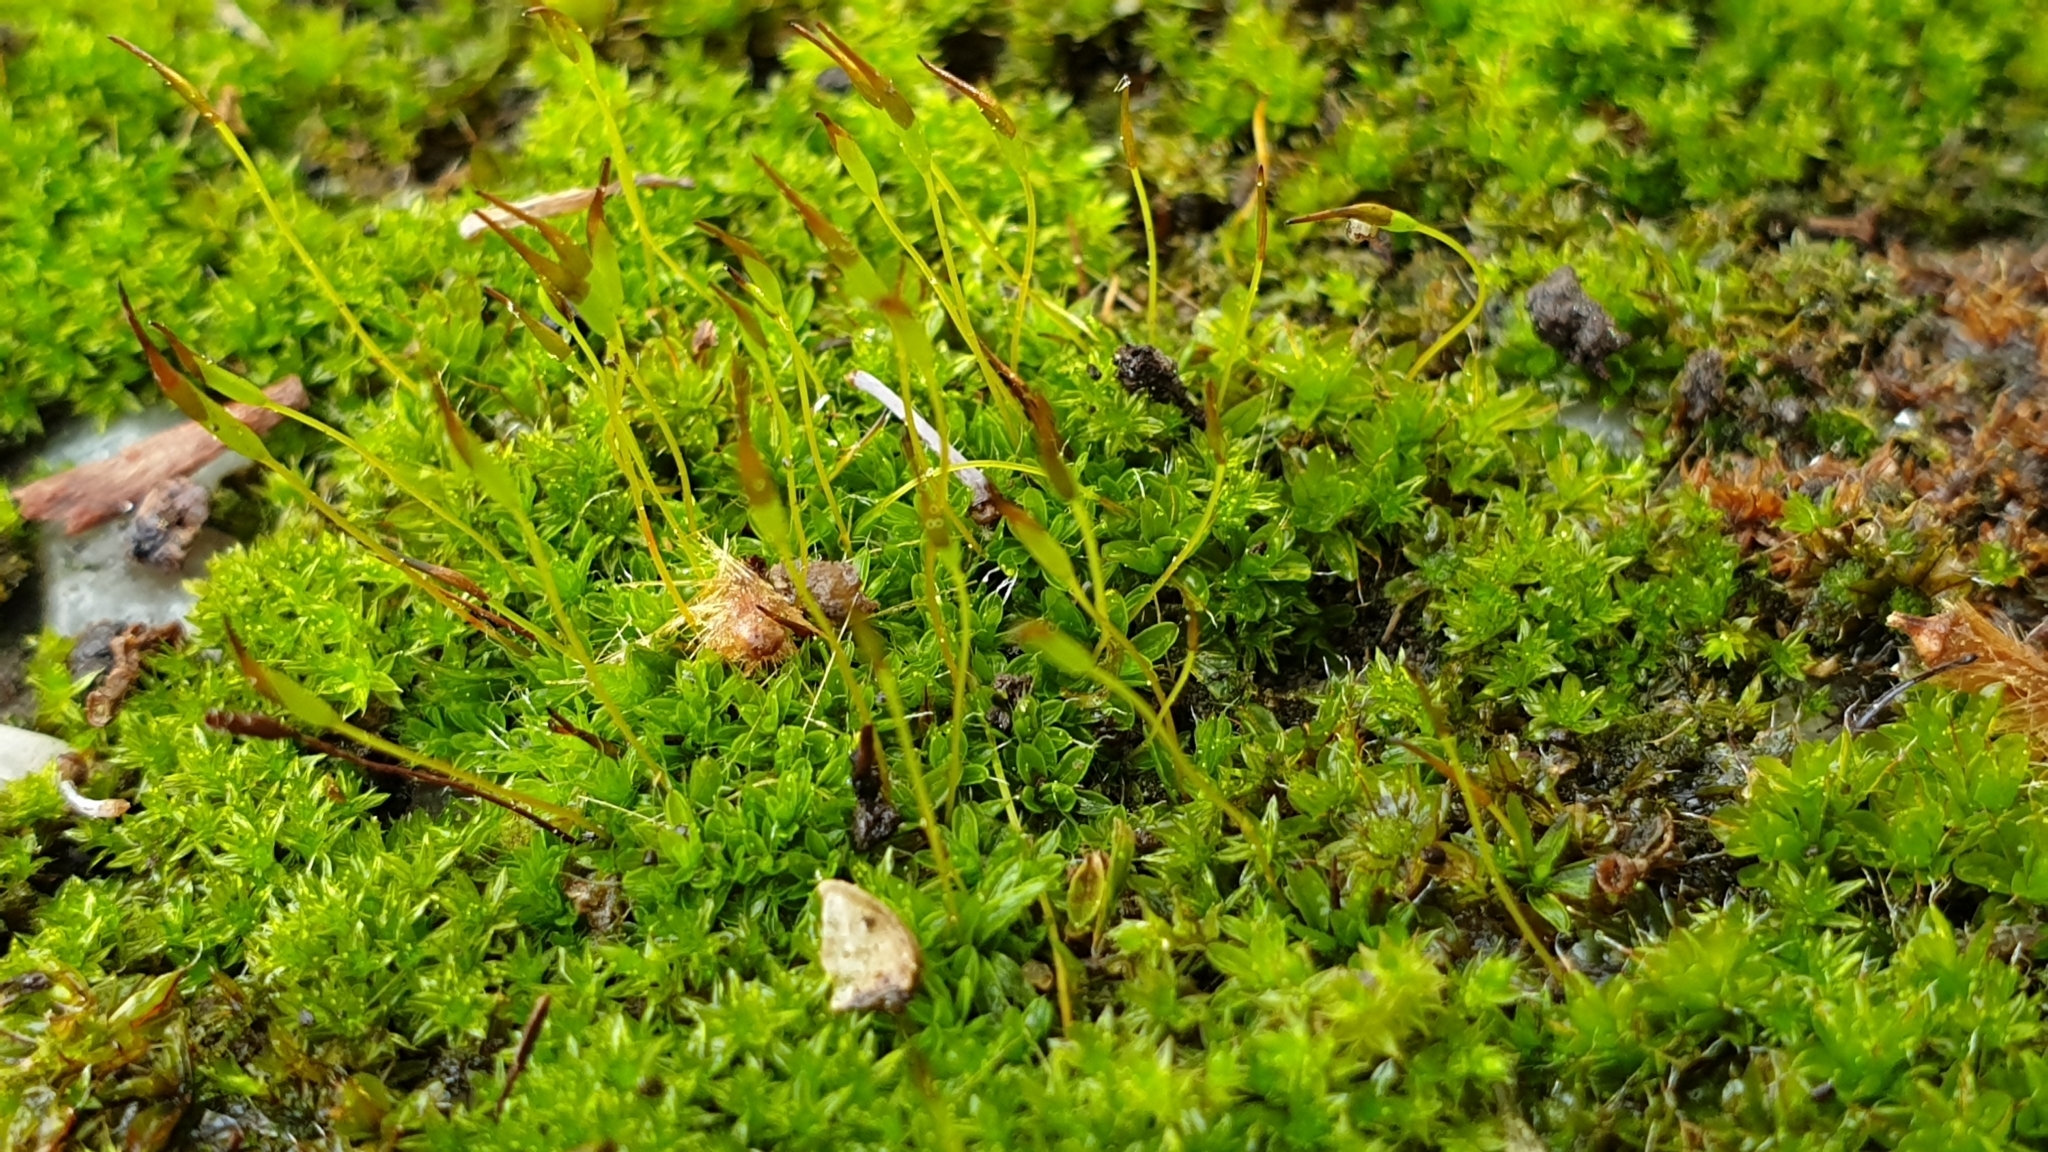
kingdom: Plantae
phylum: Bryophyta
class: Bryopsida
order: Pottiales
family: Pottiaceae
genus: Tortula
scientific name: Tortula muralis
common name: Wall screw-moss
